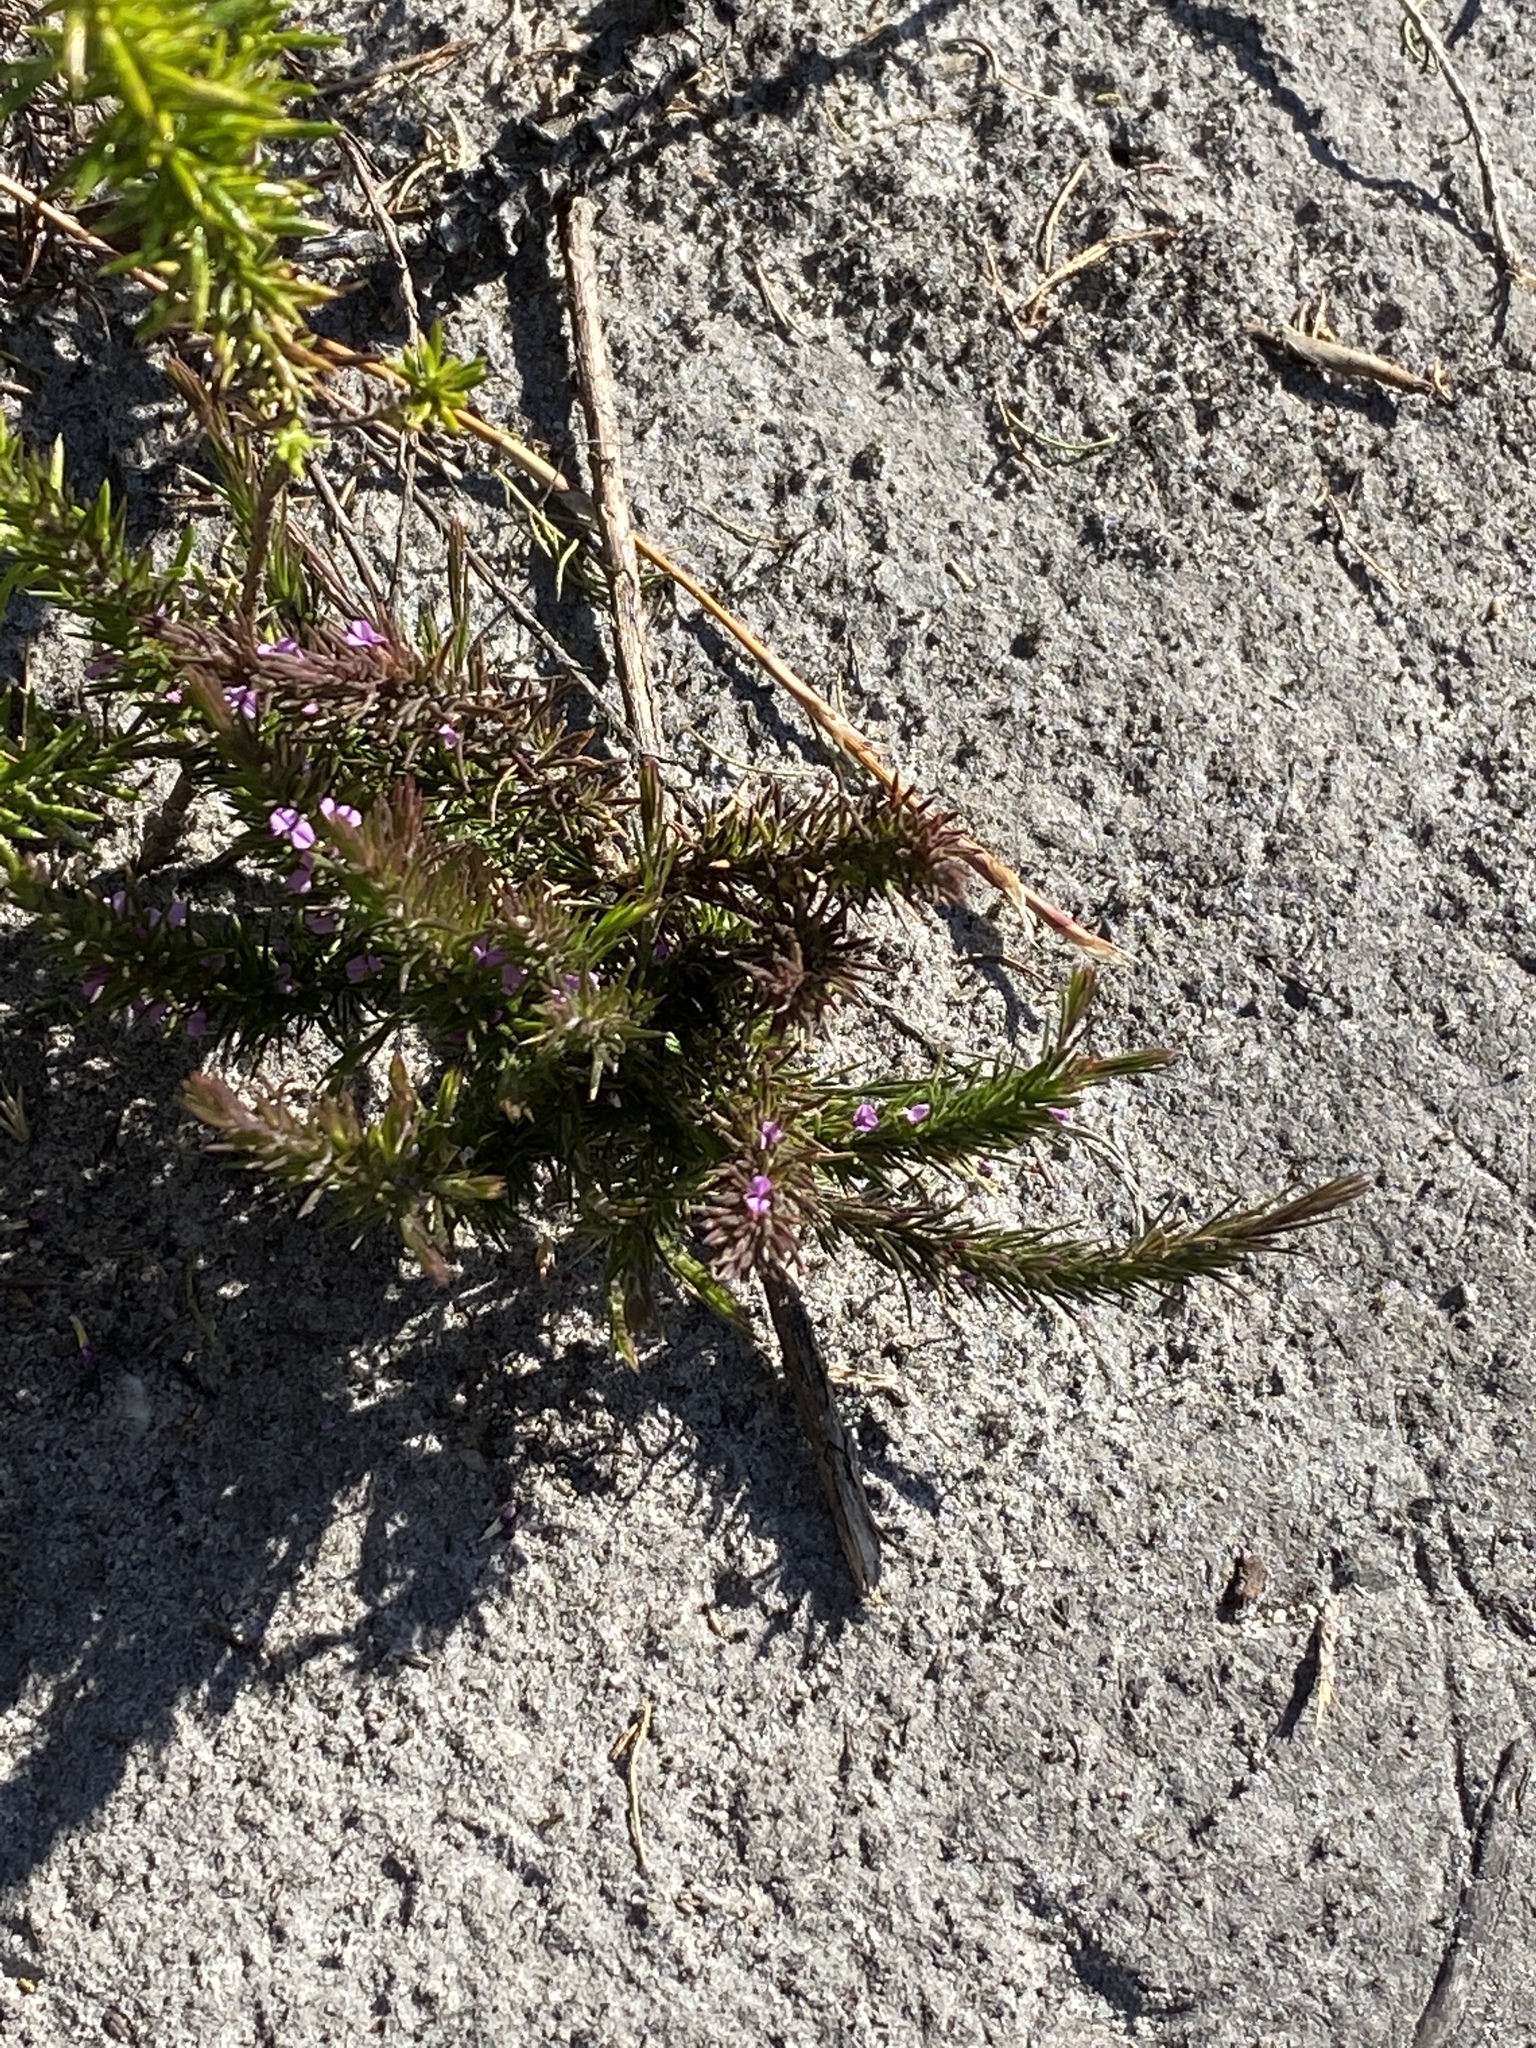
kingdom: Plantae
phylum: Tracheophyta
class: Magnoliopsida
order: Fabales
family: Polygalaceae
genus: Muraltia
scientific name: Muraltia plumosa
